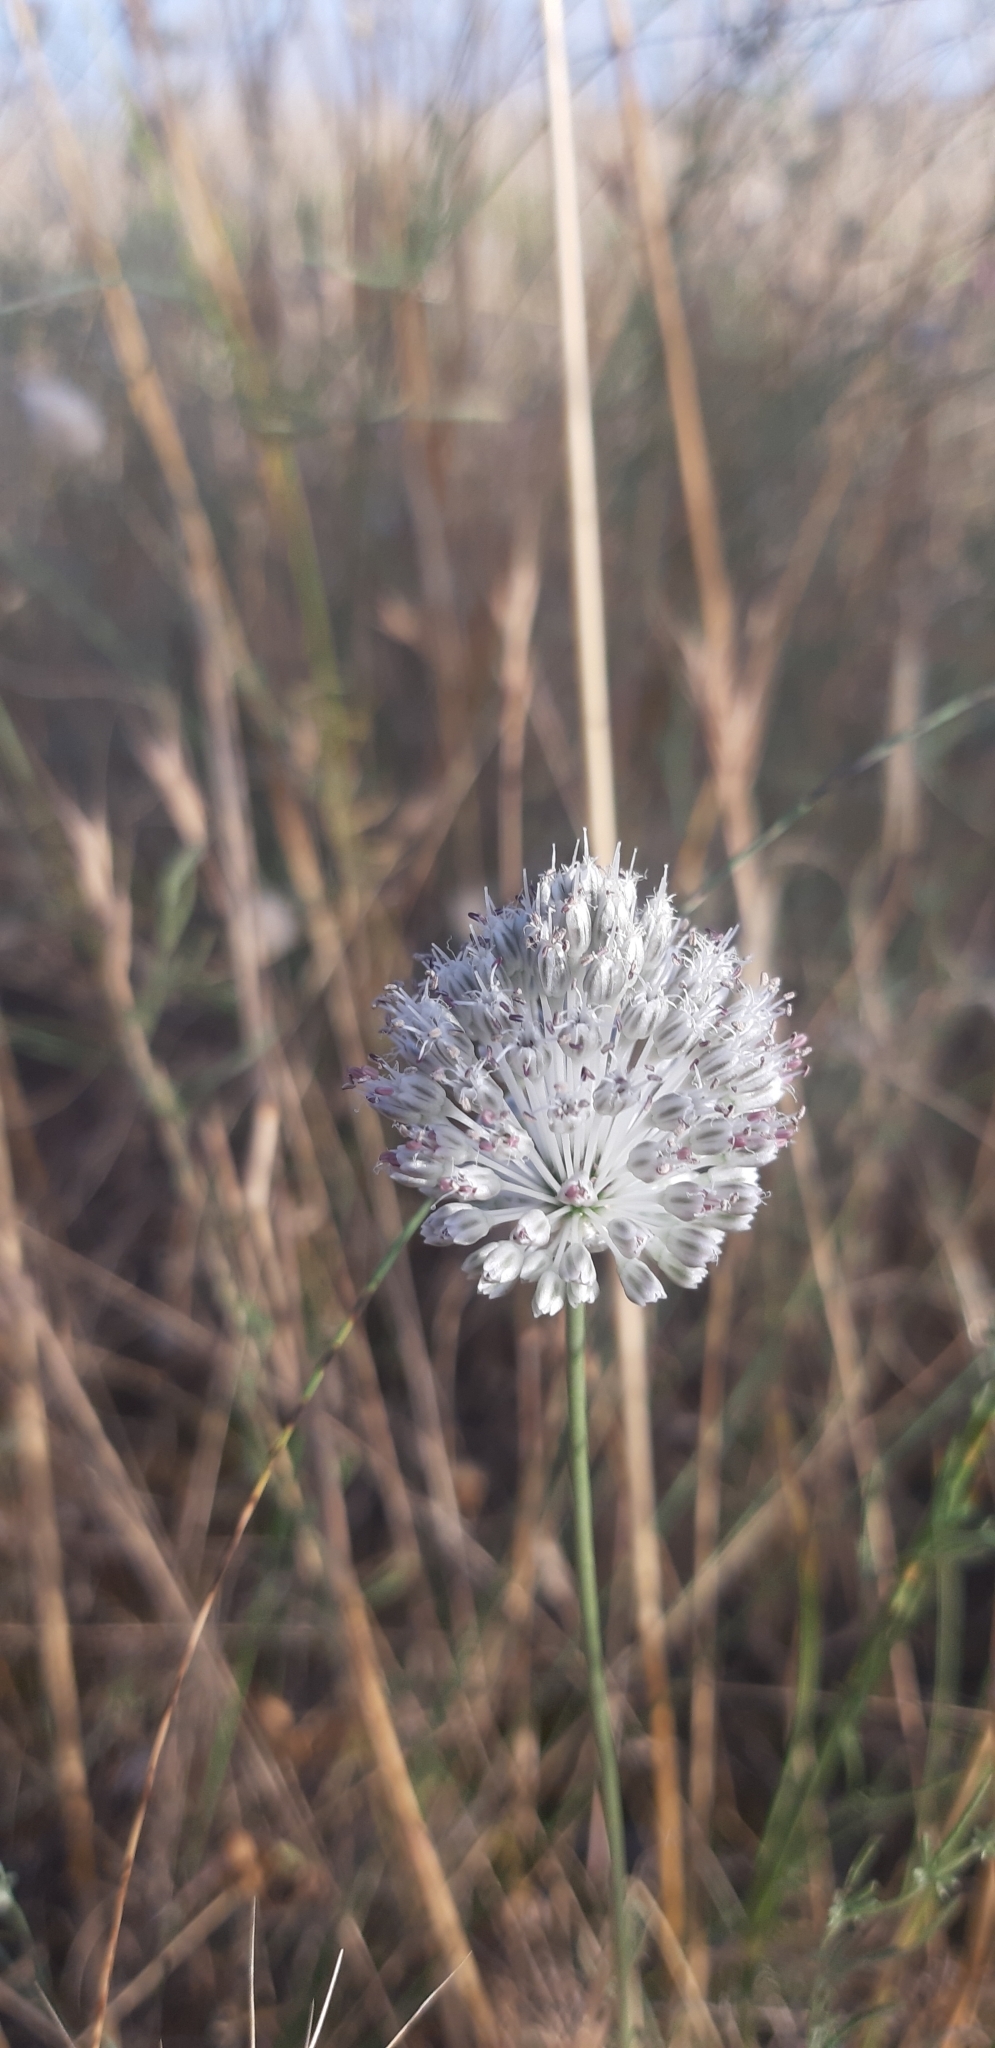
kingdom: Plantae
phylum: Tracheophyta
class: Liliopsida
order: Asparagales
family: Amaryllidaceae
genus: Allium
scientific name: Allium sardoum
